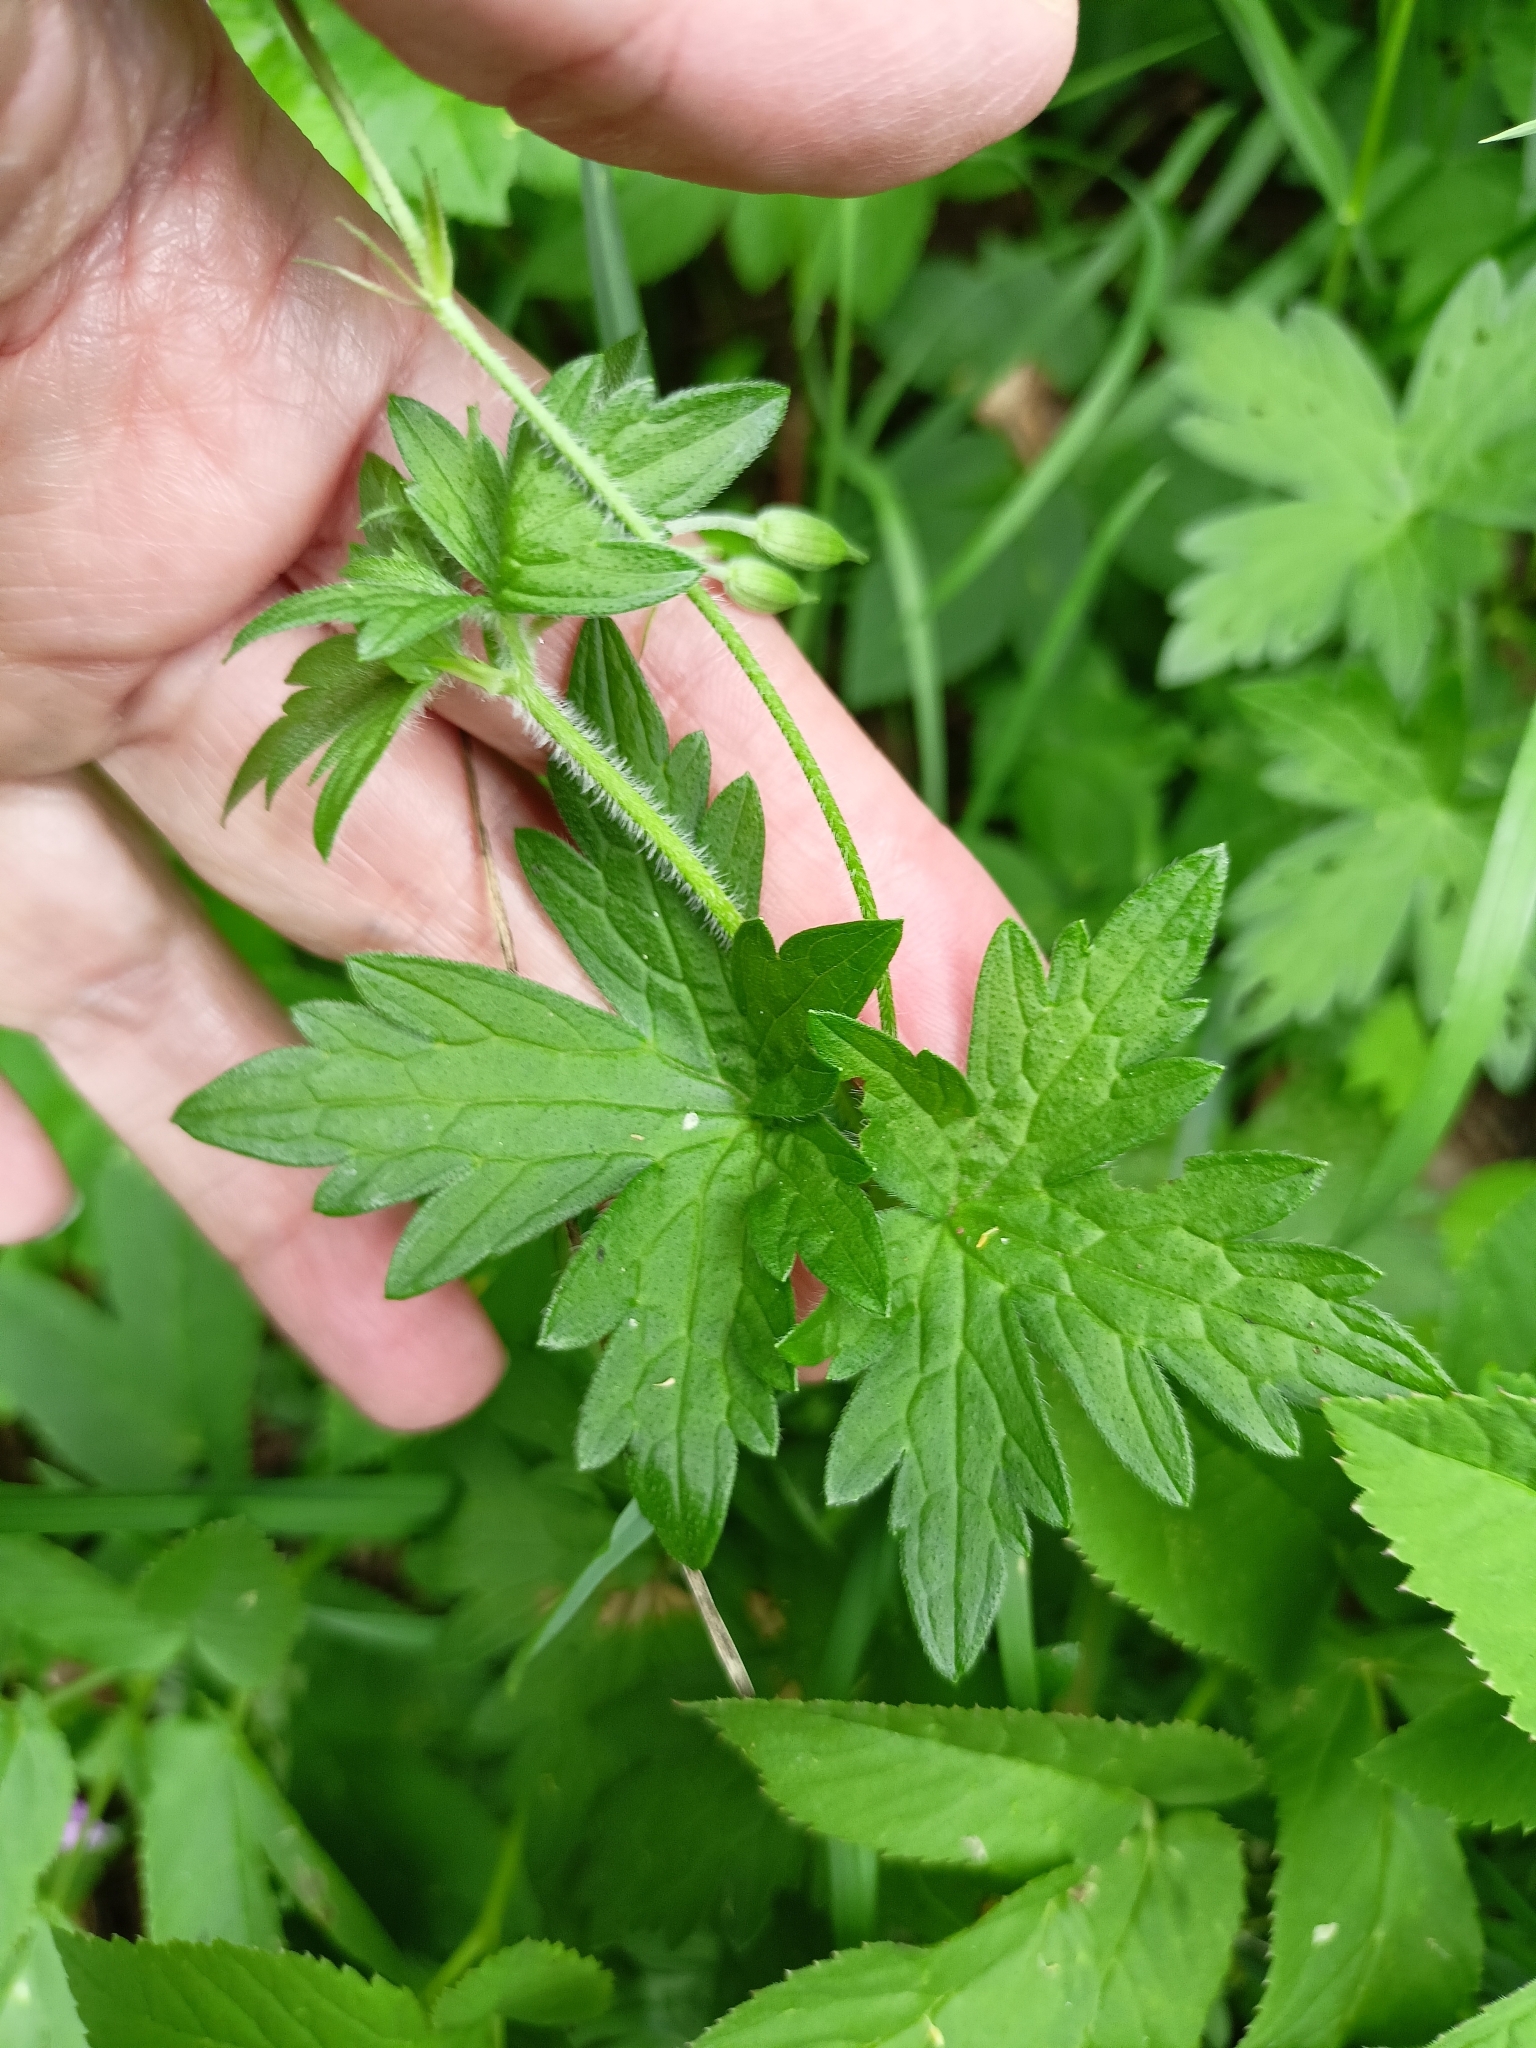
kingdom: Plantae
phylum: Tracheophyta
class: Magnoliopsida
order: Geraniales
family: Geraniaceae
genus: Geranium
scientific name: Geranium palustre
